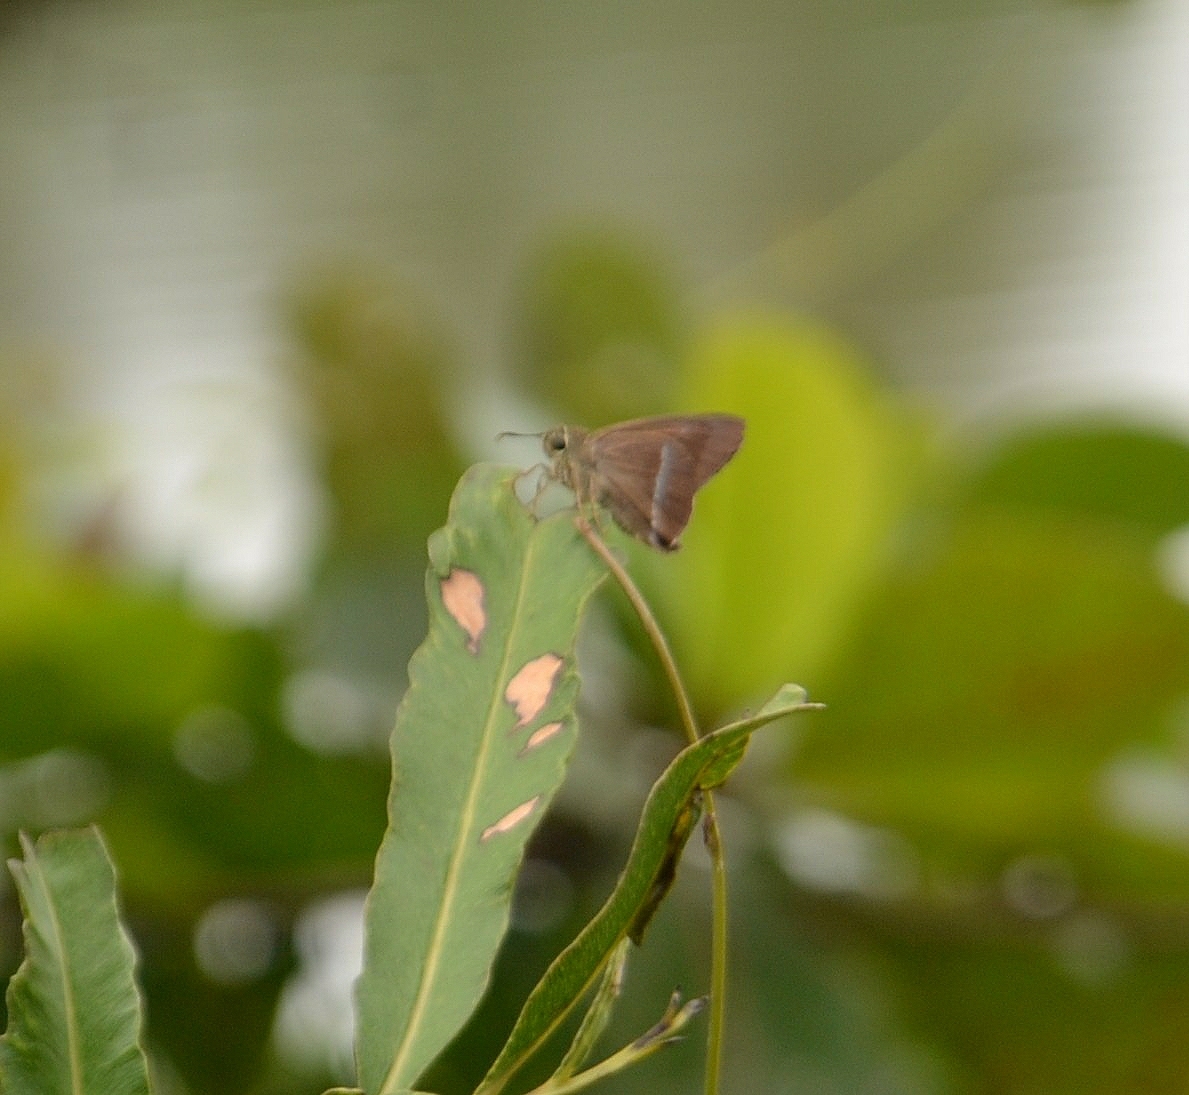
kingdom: Animalia
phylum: Arthropoda
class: Insecta
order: Lepidoptera
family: Hesperiidae
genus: Hasora
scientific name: Hasora chromus
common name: Common banded awl
